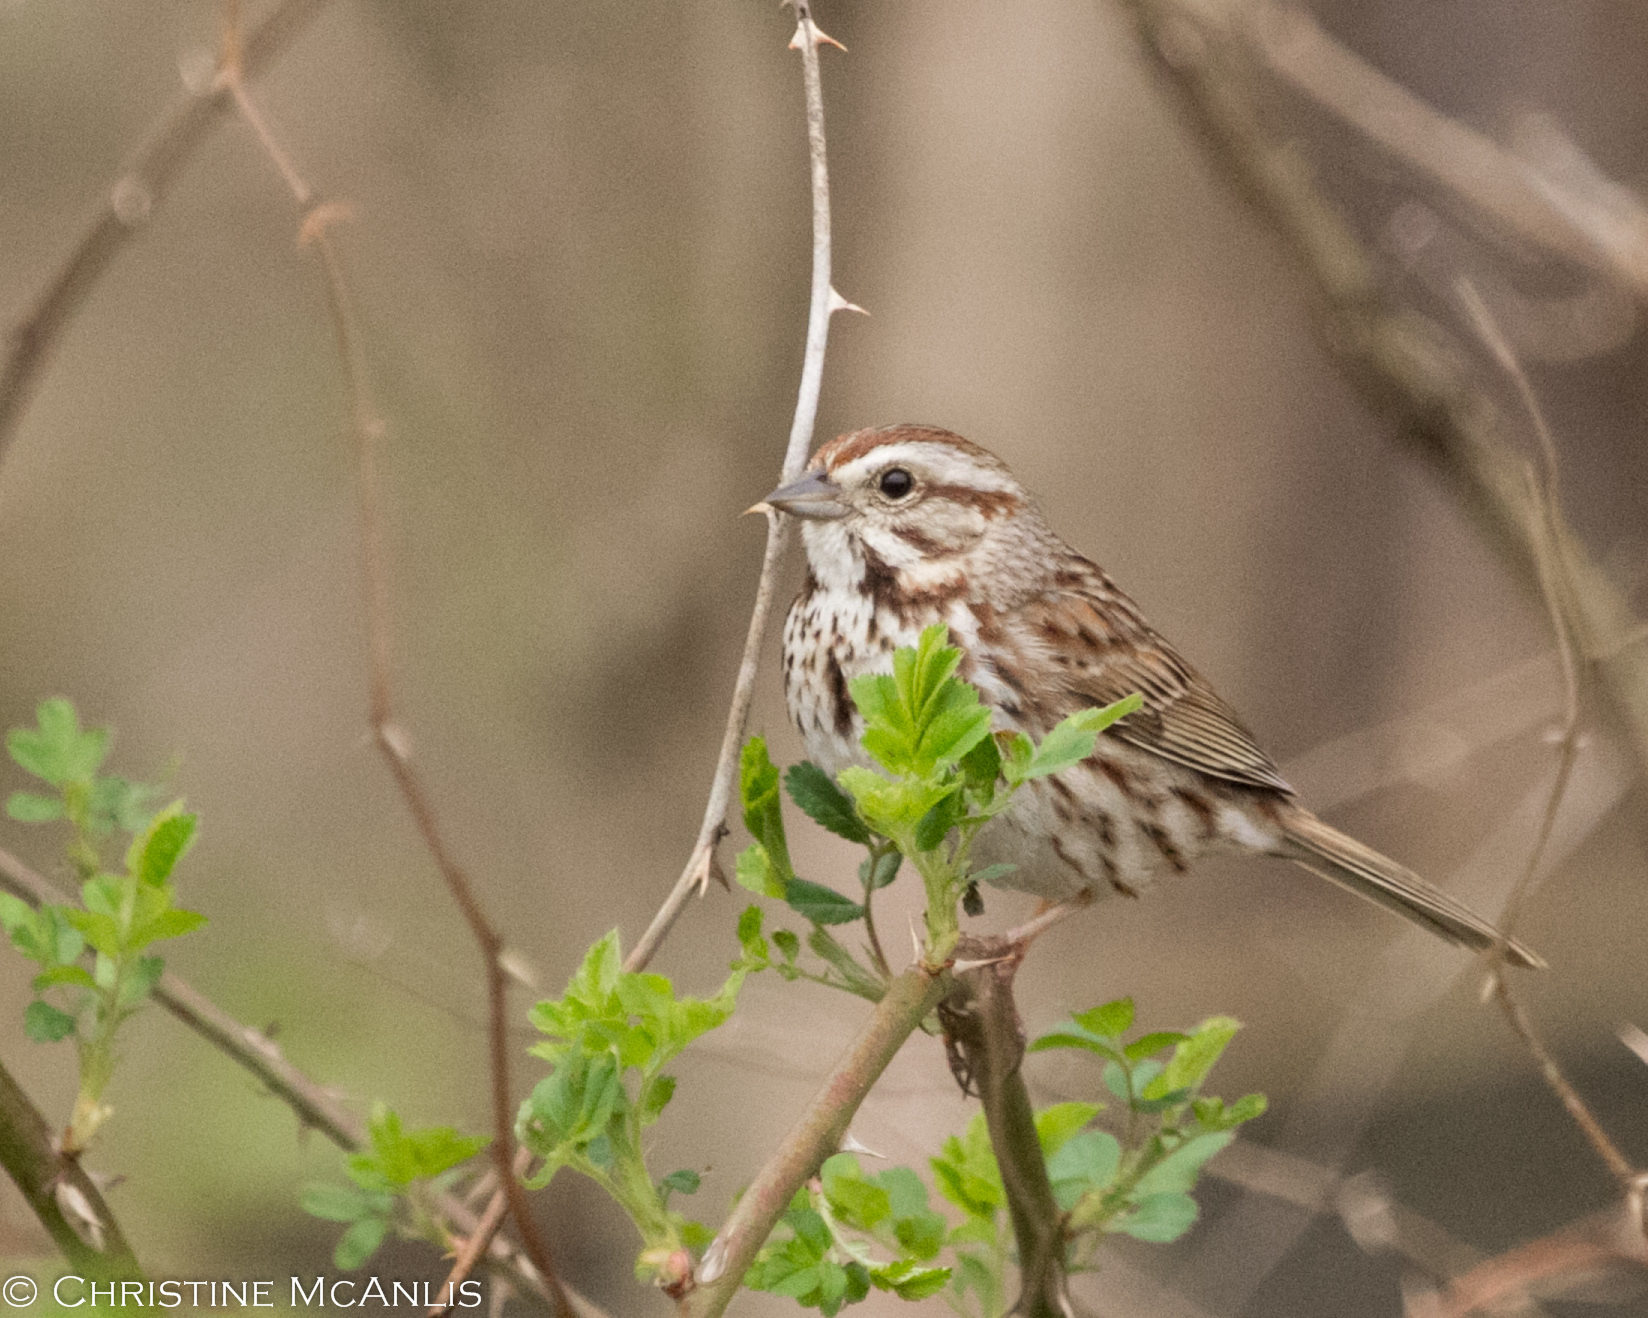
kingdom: Animalia
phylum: Chordata
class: Aves
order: Passeriformes
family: Passerellidae
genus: Melospiza
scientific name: Melospiza melodia
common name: Song sparrow
